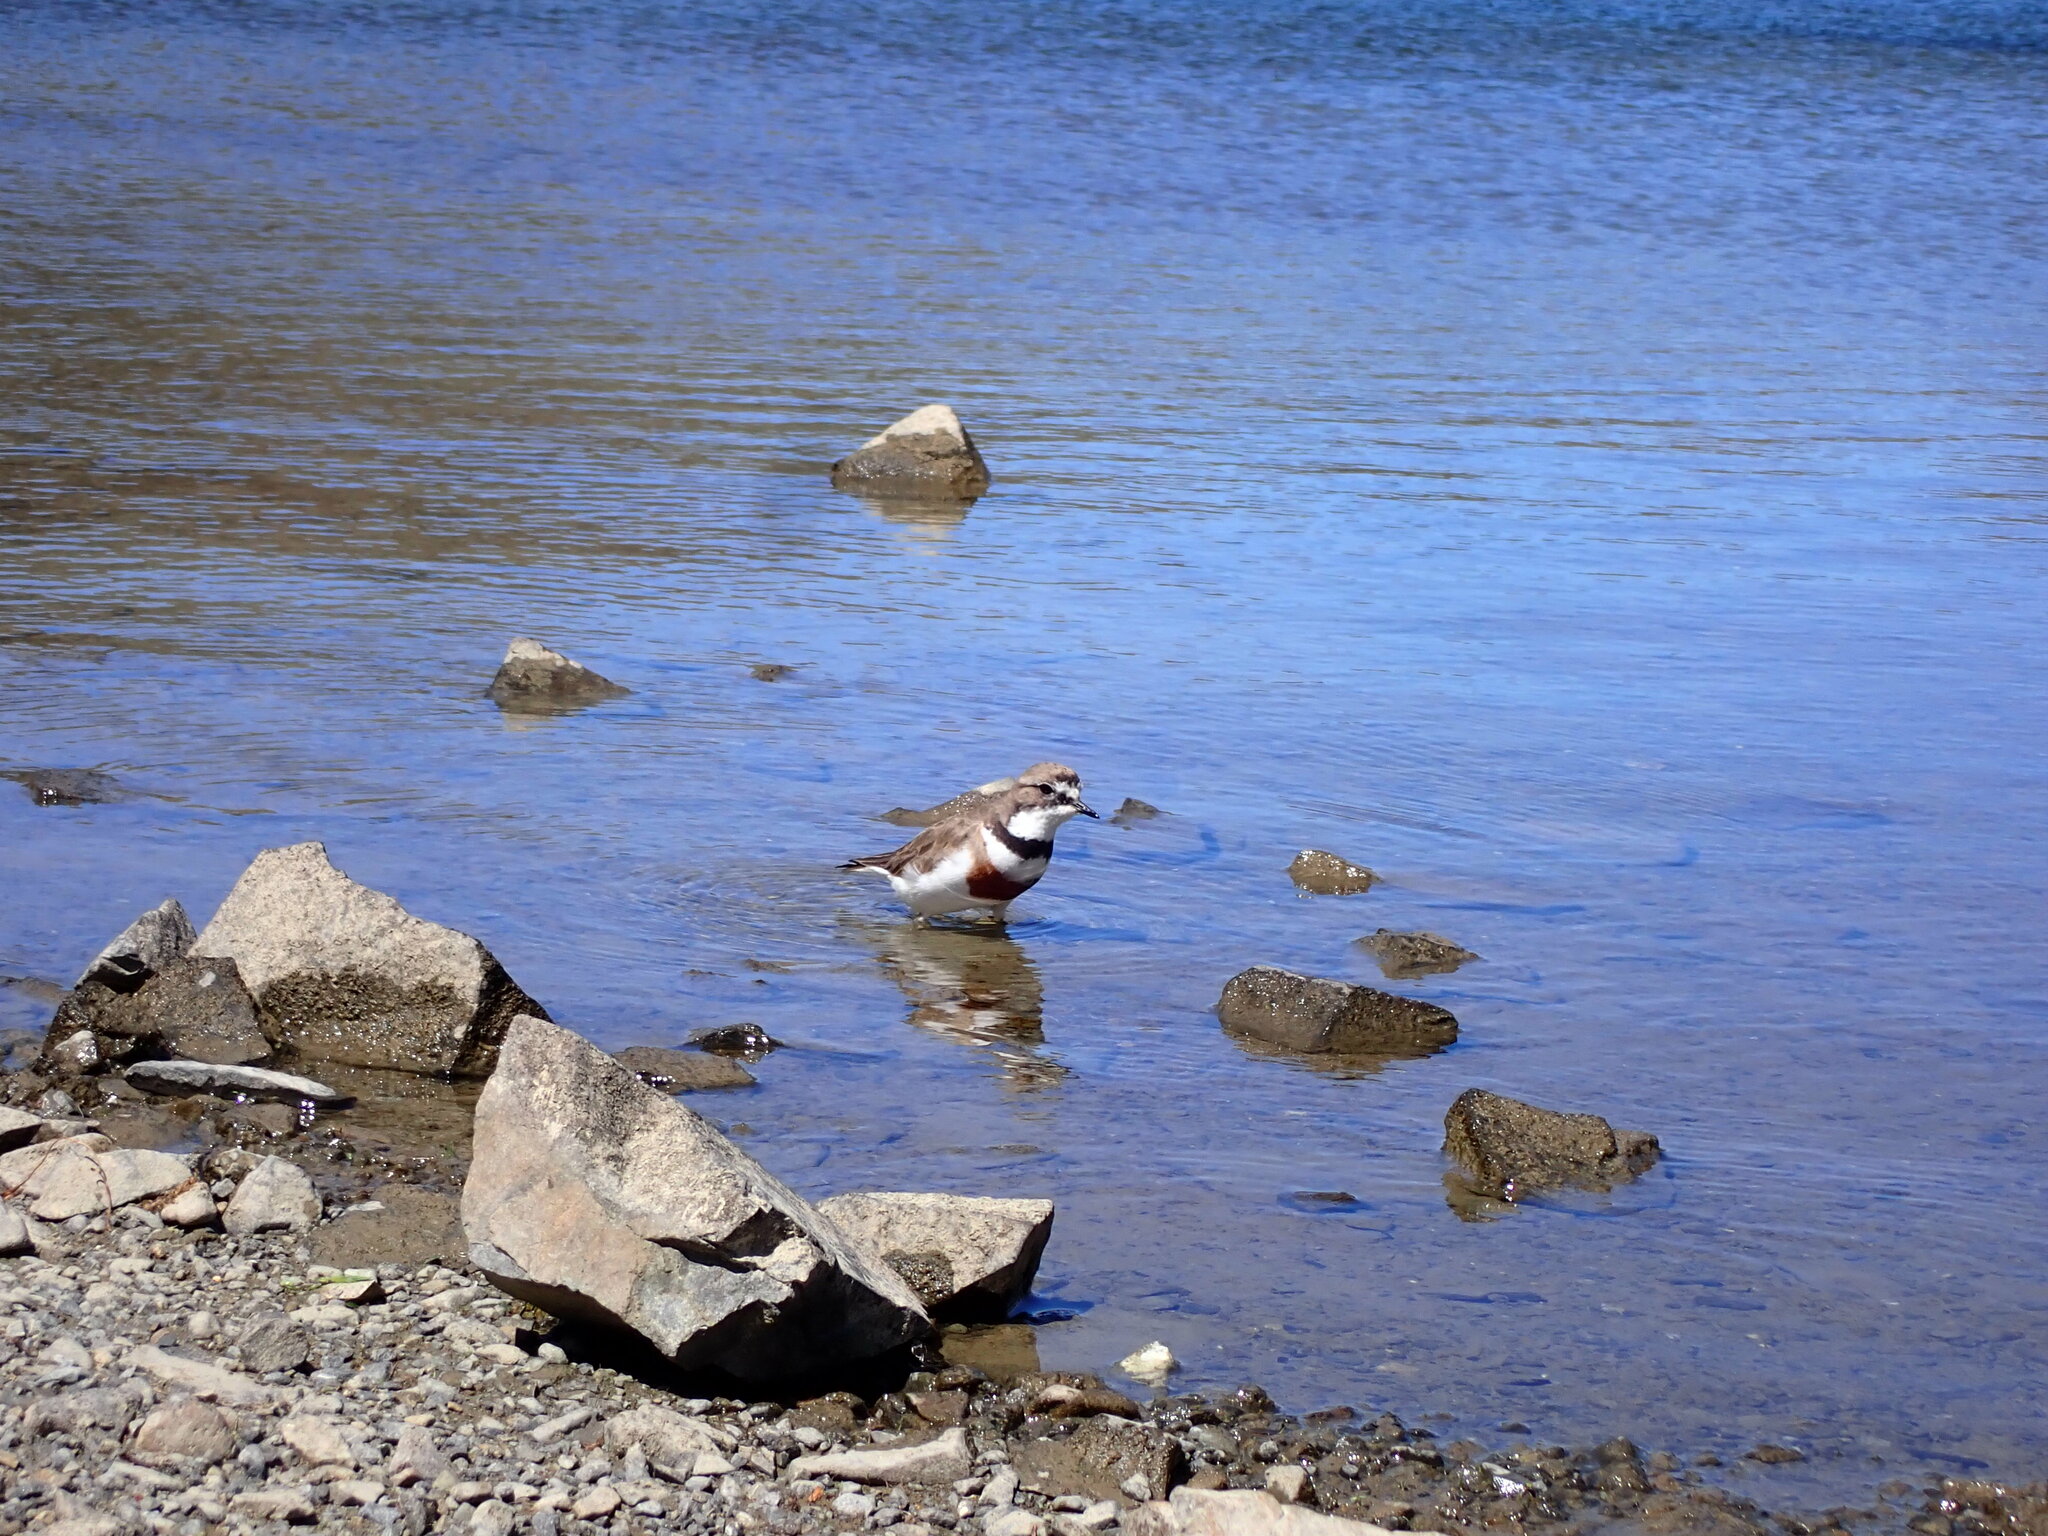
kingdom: Animalia
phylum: Chordata
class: Aves
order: Charadriiformes
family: Charadriidae
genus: Anarhynchus
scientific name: Anarhynchus
